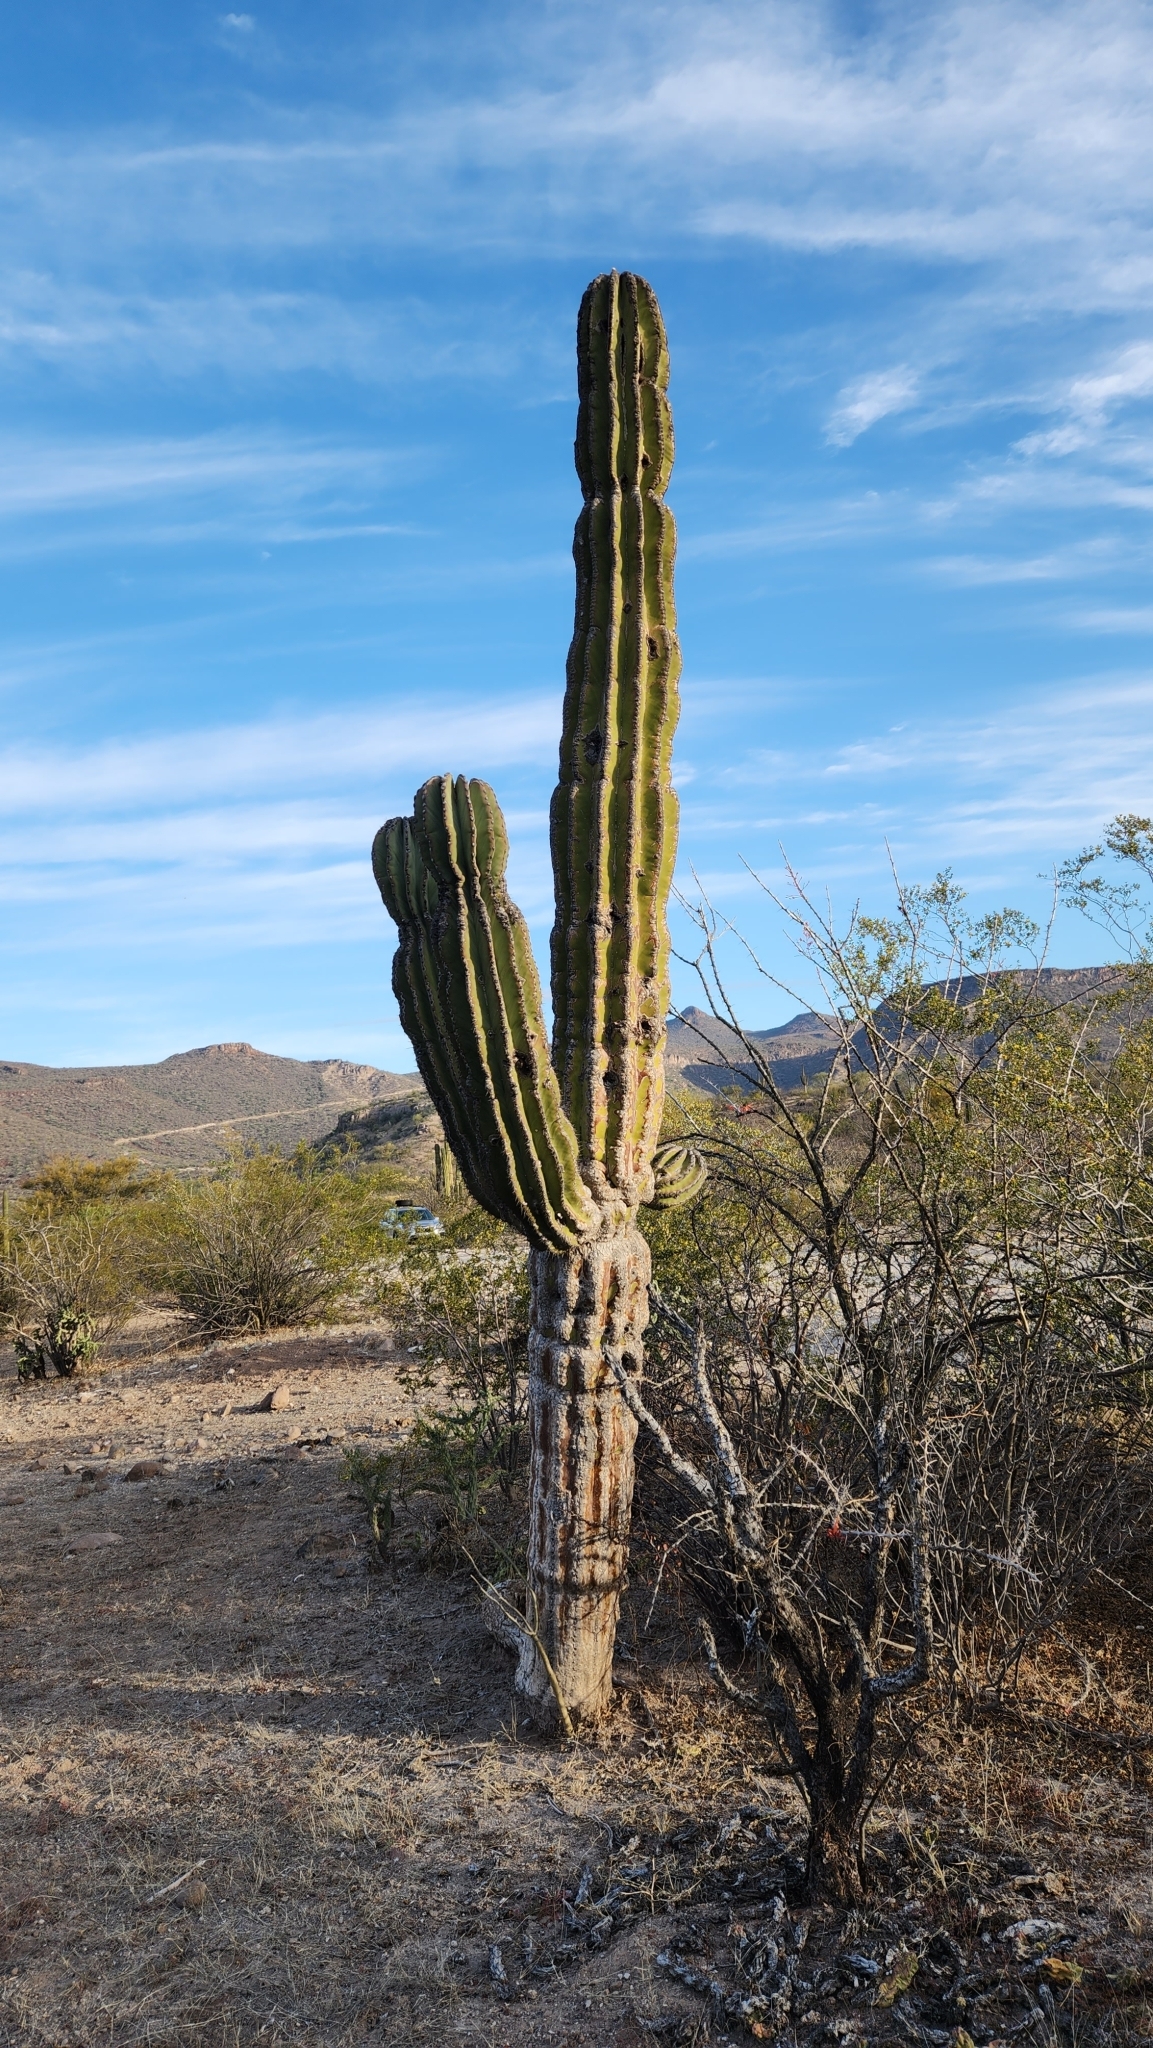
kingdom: Plantae
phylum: Tracheophyta
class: Magnoliopsida
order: Caryophyllales
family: Cactaceae
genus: Pachycereus
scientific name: Pachycereus pringlei
